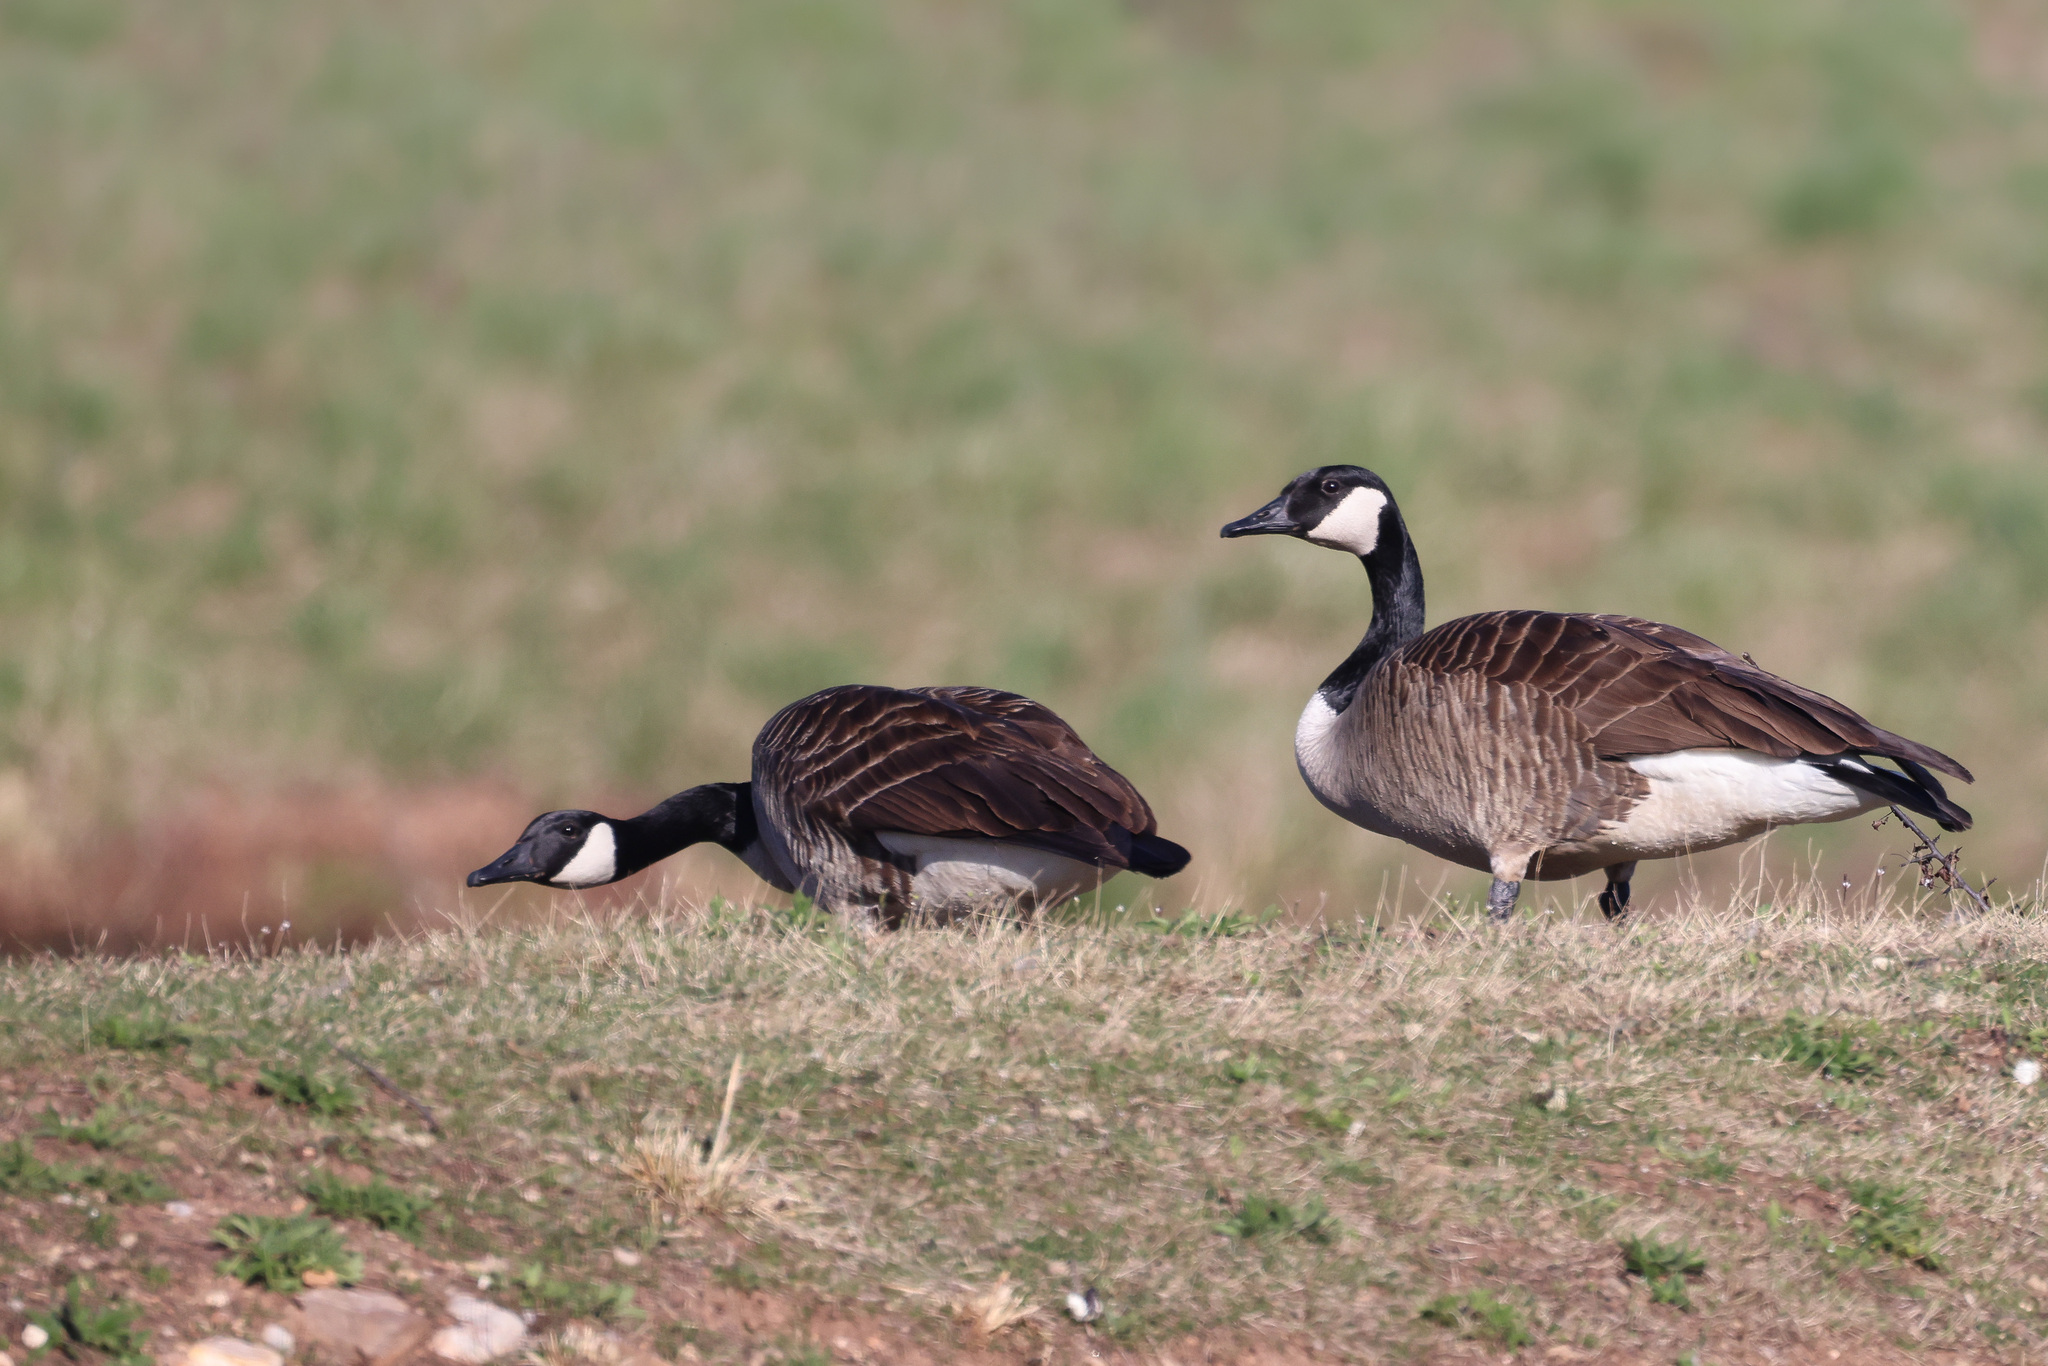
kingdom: Animalia
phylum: Chordata
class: Aves
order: Anseriformes
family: Anatidae
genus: Branta
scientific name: Branta canadensis
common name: Canada goose
